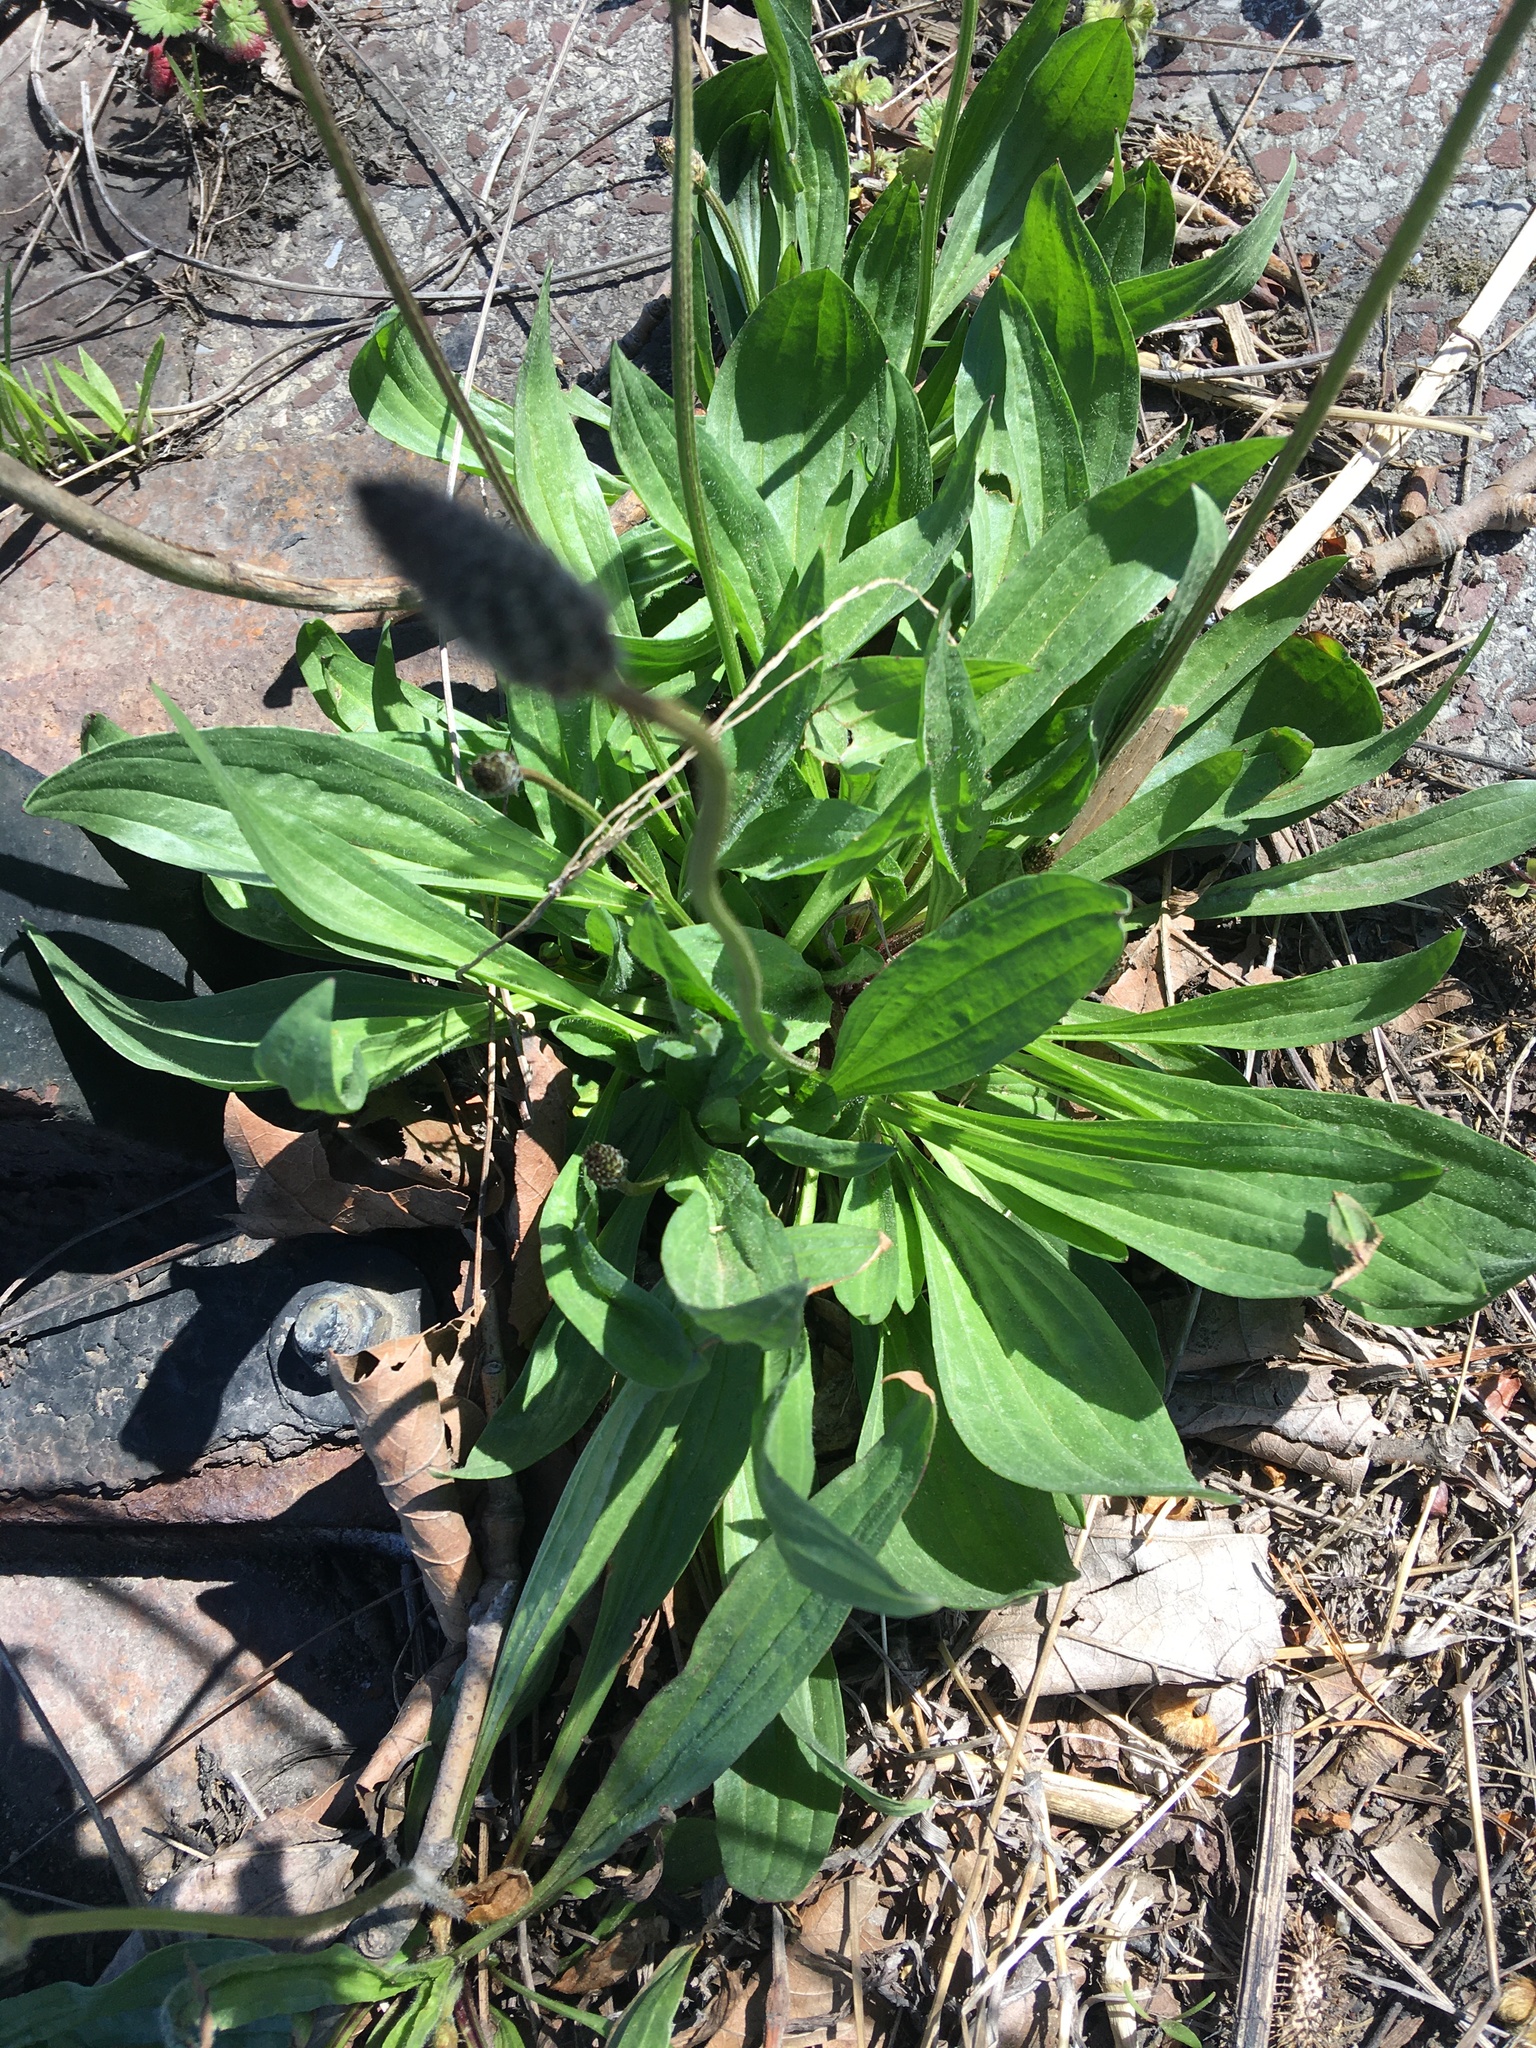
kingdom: Plantae
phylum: Tracheophyta
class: Magnoliopsida
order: Lamiales
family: Plantaginaceae
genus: Plantago
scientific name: Plantago lanceolata
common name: Ribwort plantain
